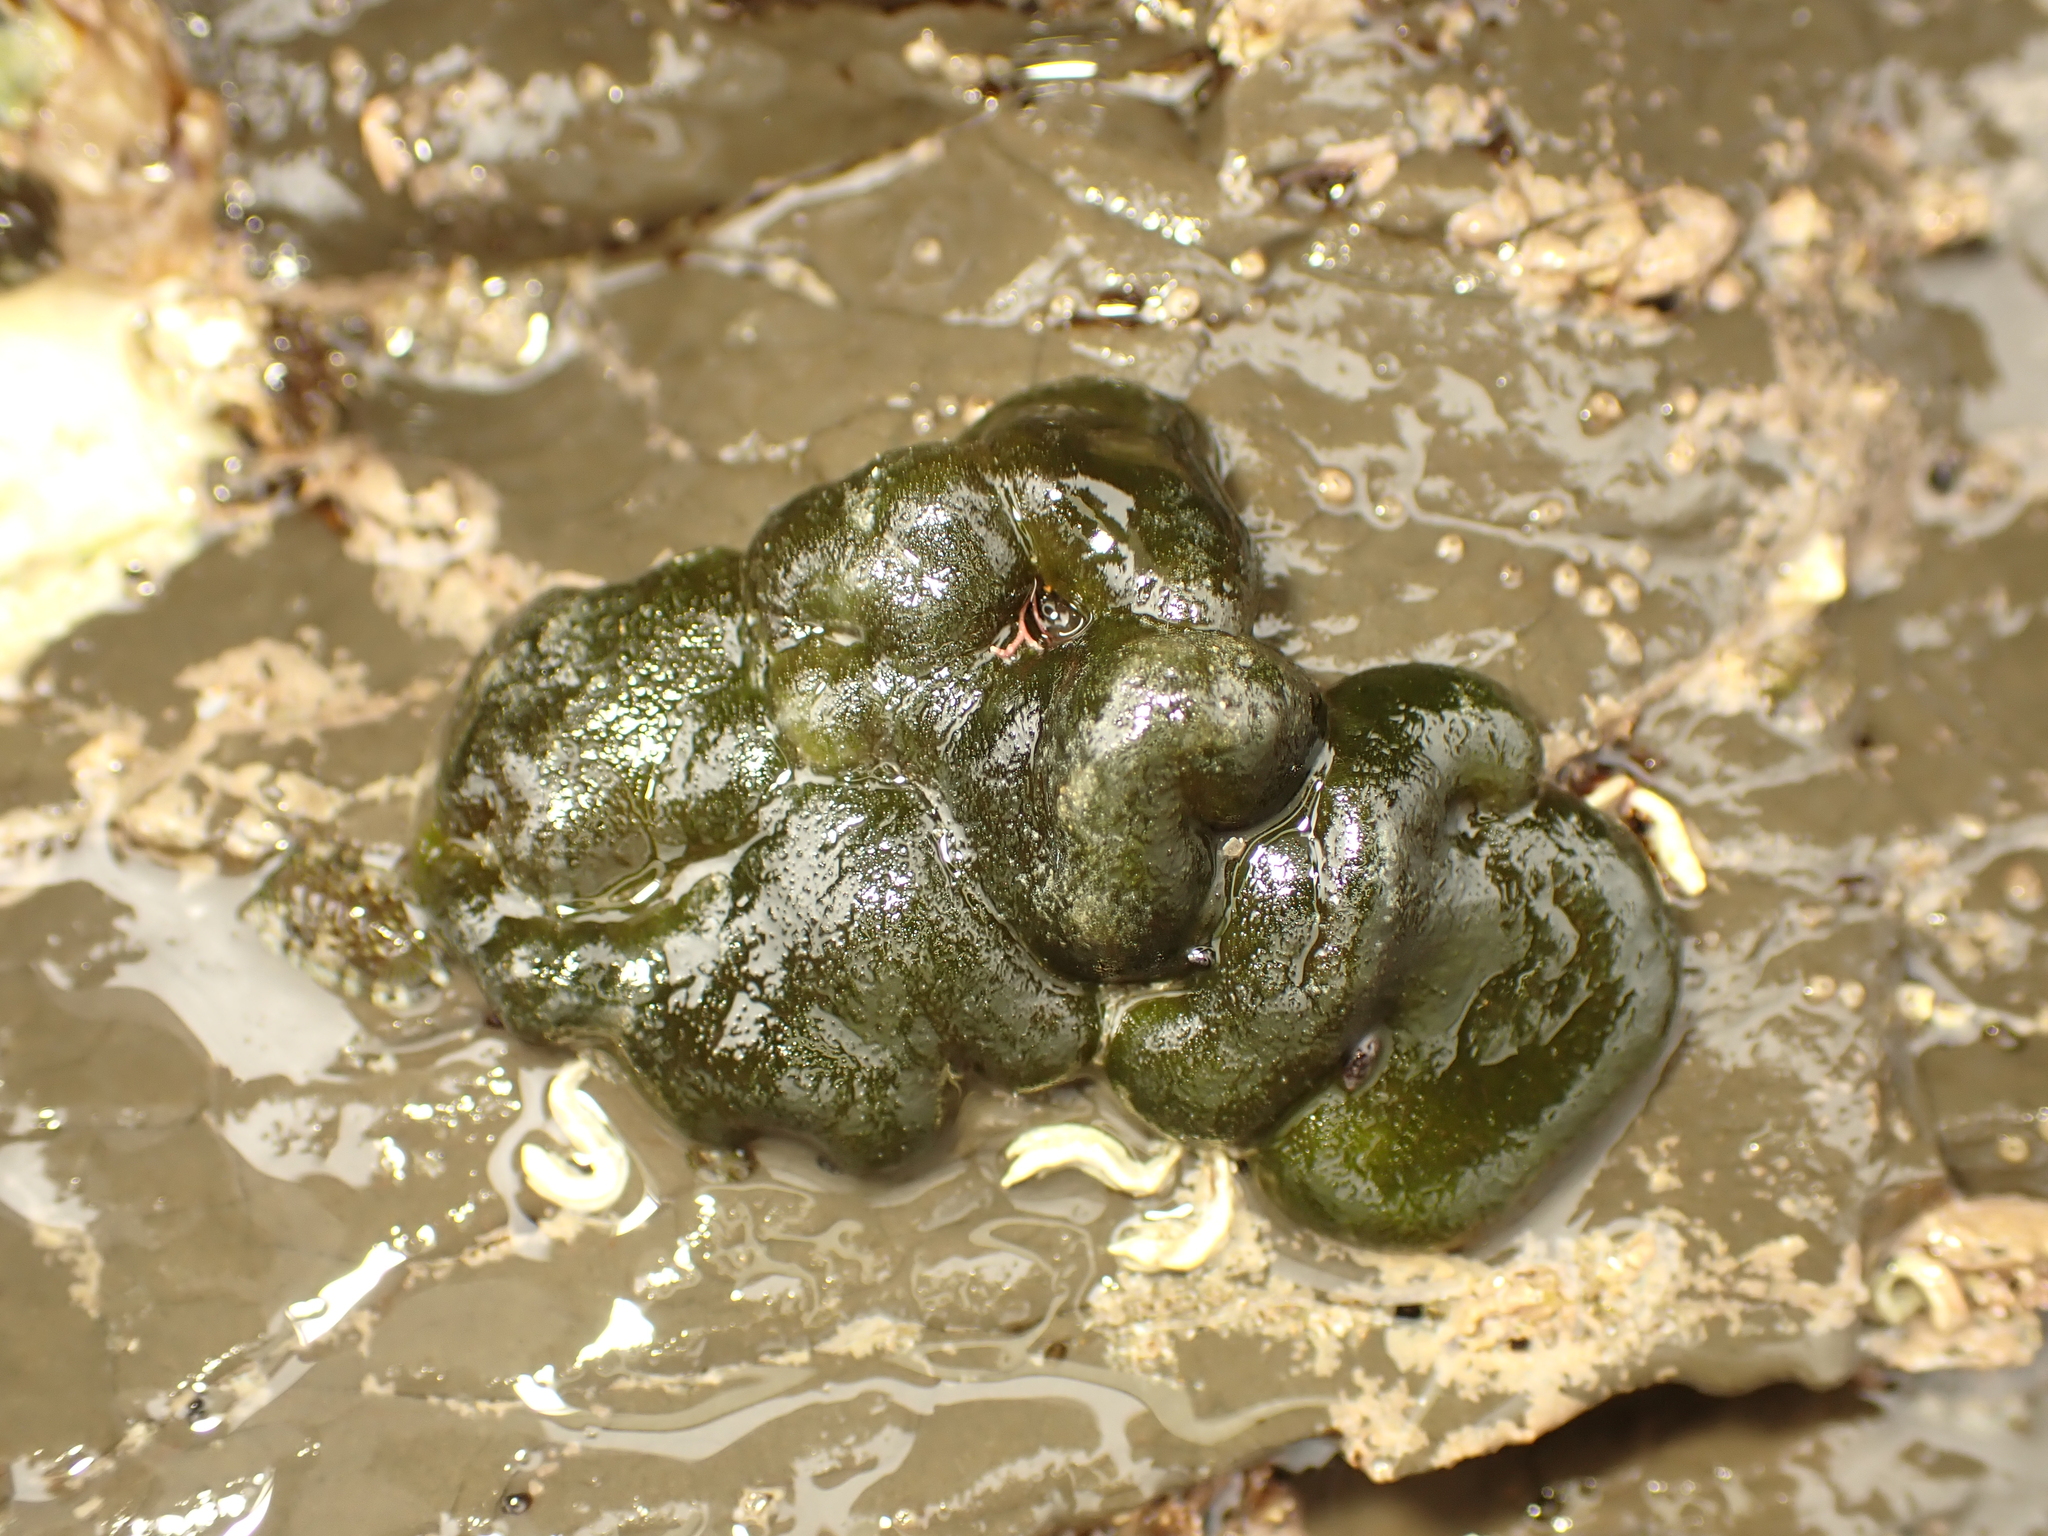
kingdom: Plantae
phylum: Chlorophyta
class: Ulvophyceae
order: Bryopsidales
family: Codiaceae
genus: Codium
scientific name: Codium convolutum
